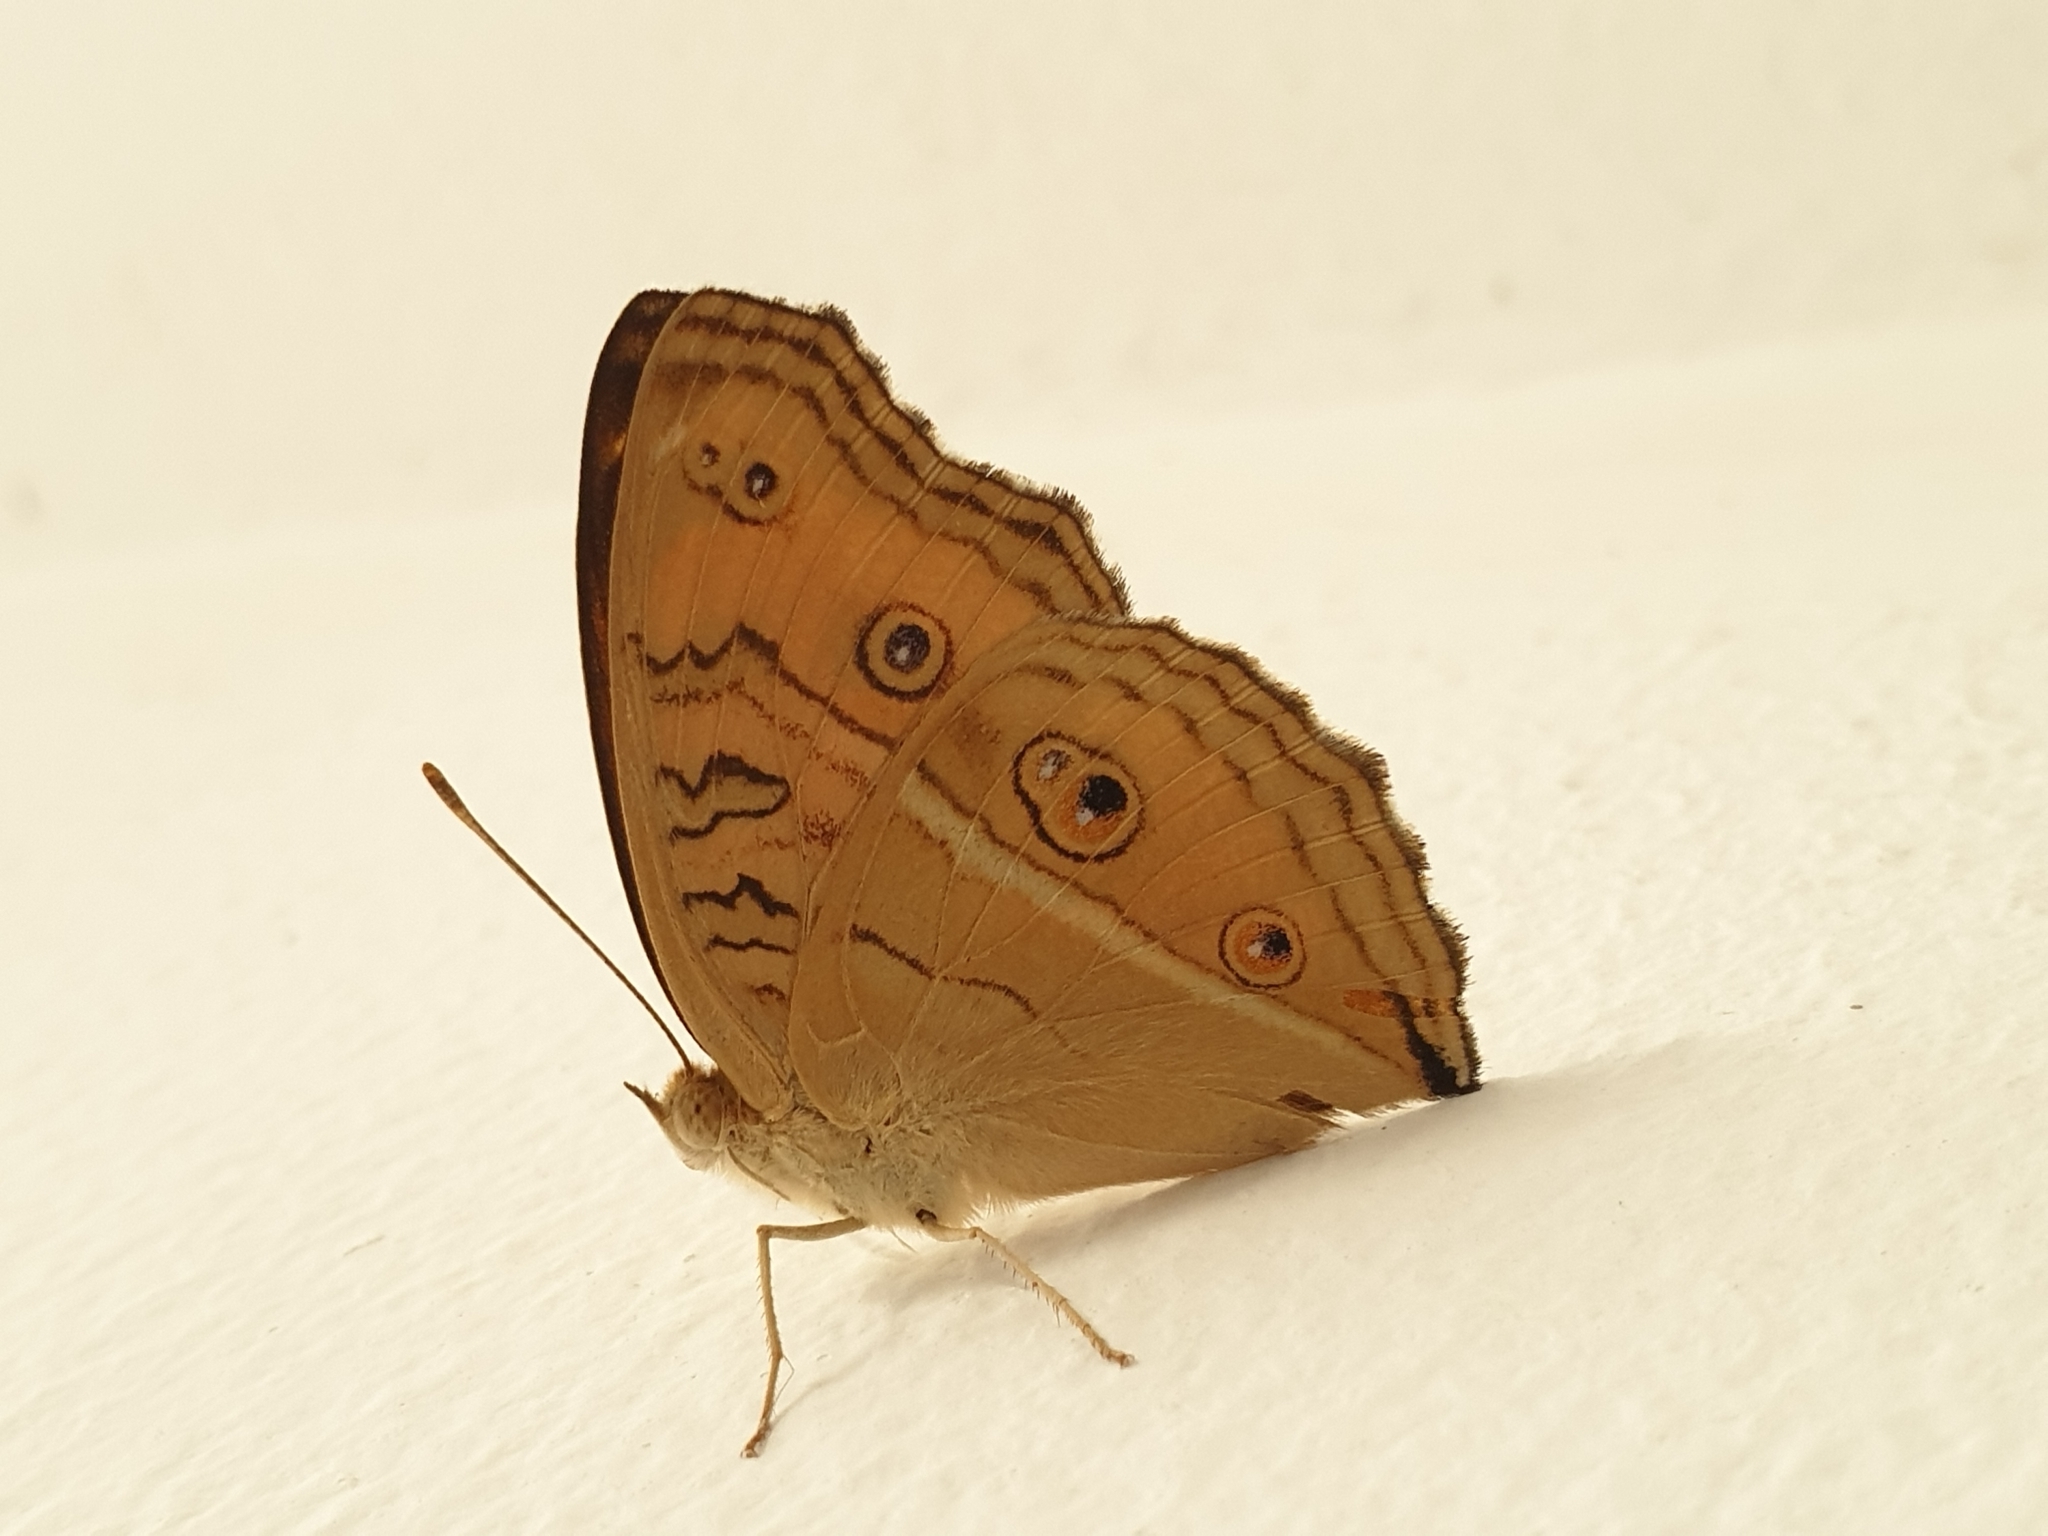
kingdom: Animalia
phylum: Arthropoda
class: Insecta
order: Lepidoptera
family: Nymphalidae
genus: Junonia
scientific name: Junonia almana
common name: Peacock pansy
